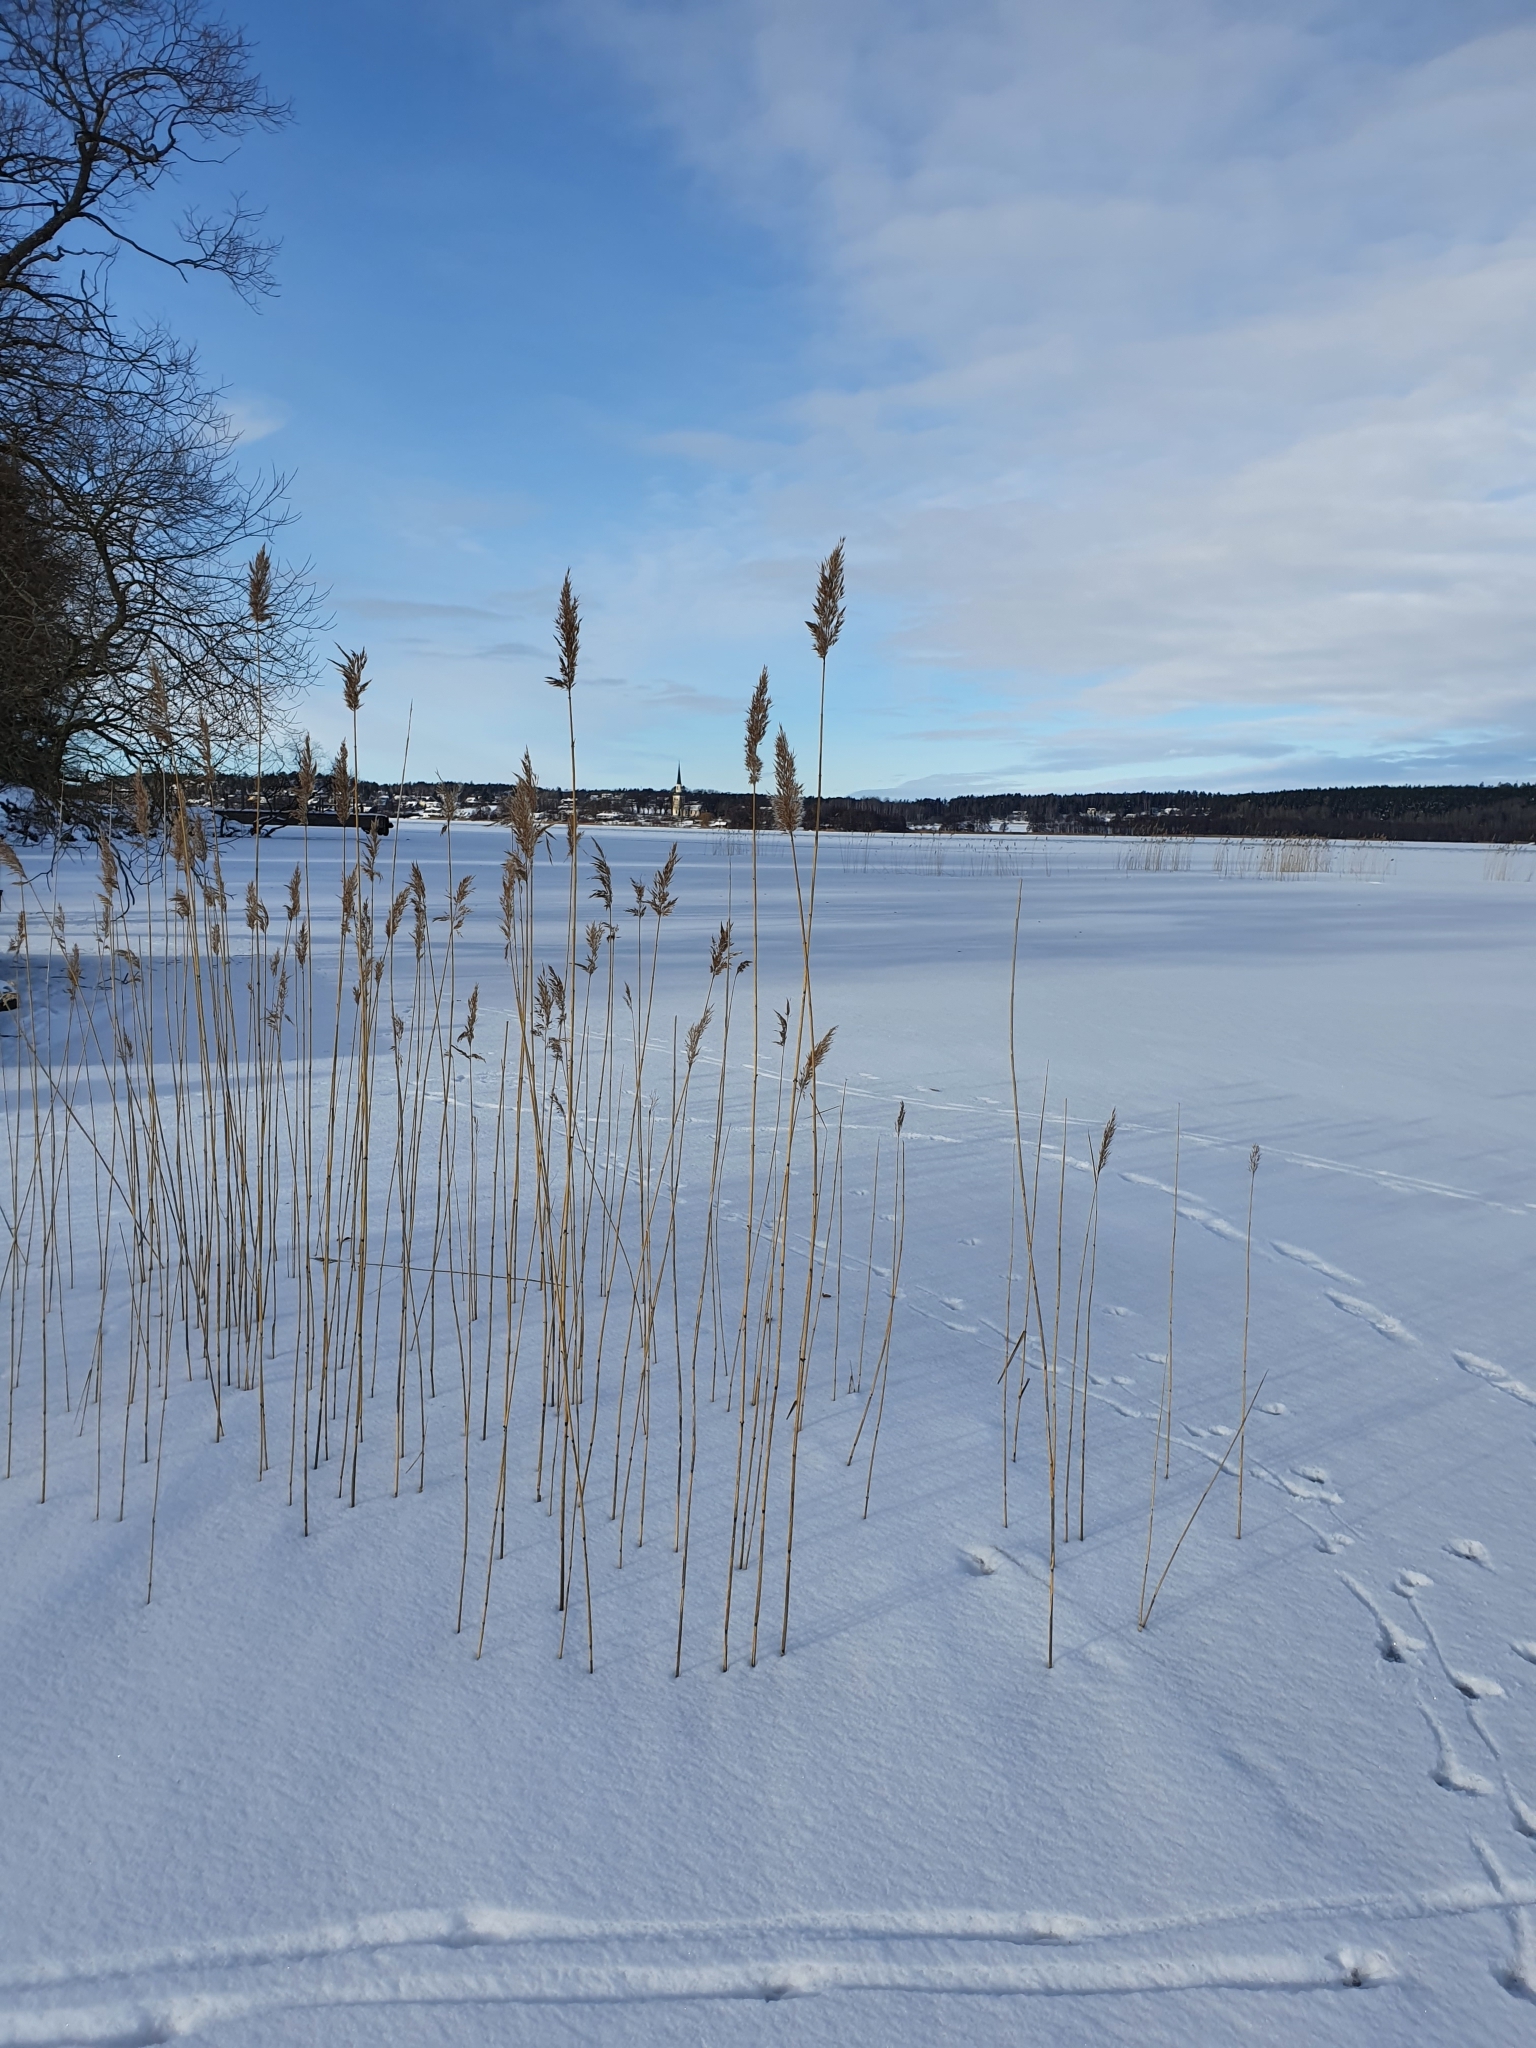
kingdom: Plantae
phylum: Tracheophyta
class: Liliopsida
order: Poales
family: Poaceae
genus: Phragmites
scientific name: Phragmites australis
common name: Common reed
